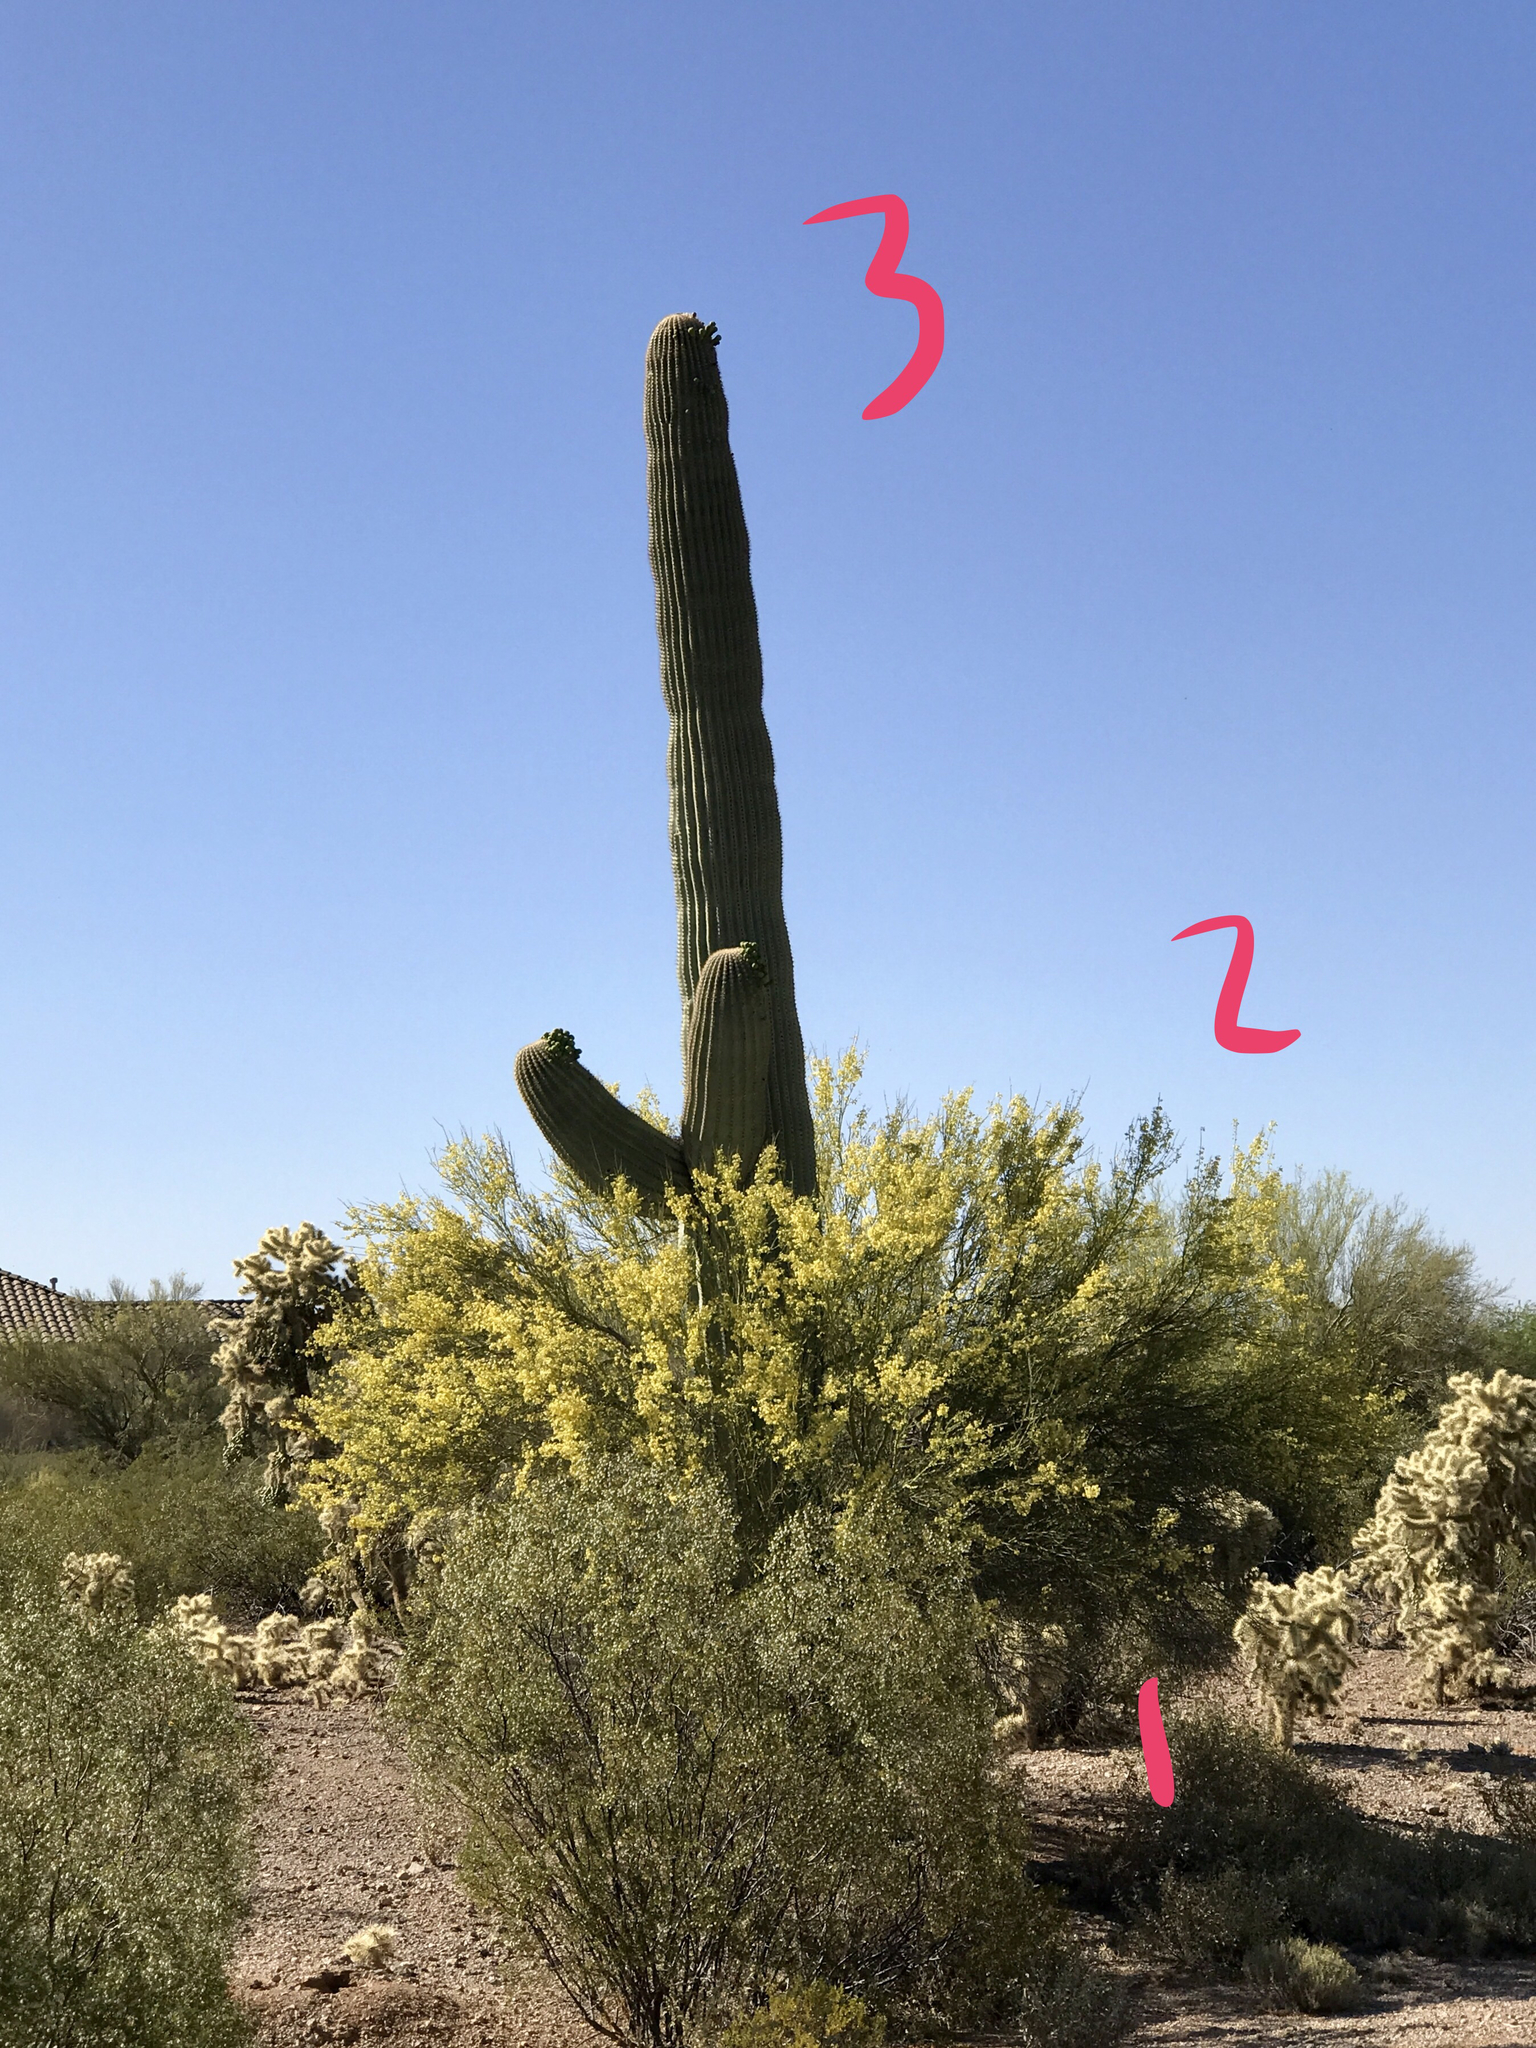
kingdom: Plantae
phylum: Tracheophyta
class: Magnoliopsida
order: Fabales
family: Fabaceae
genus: Parkinsonia
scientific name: Parkinsonia microphylla
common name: Yellow paloverde
